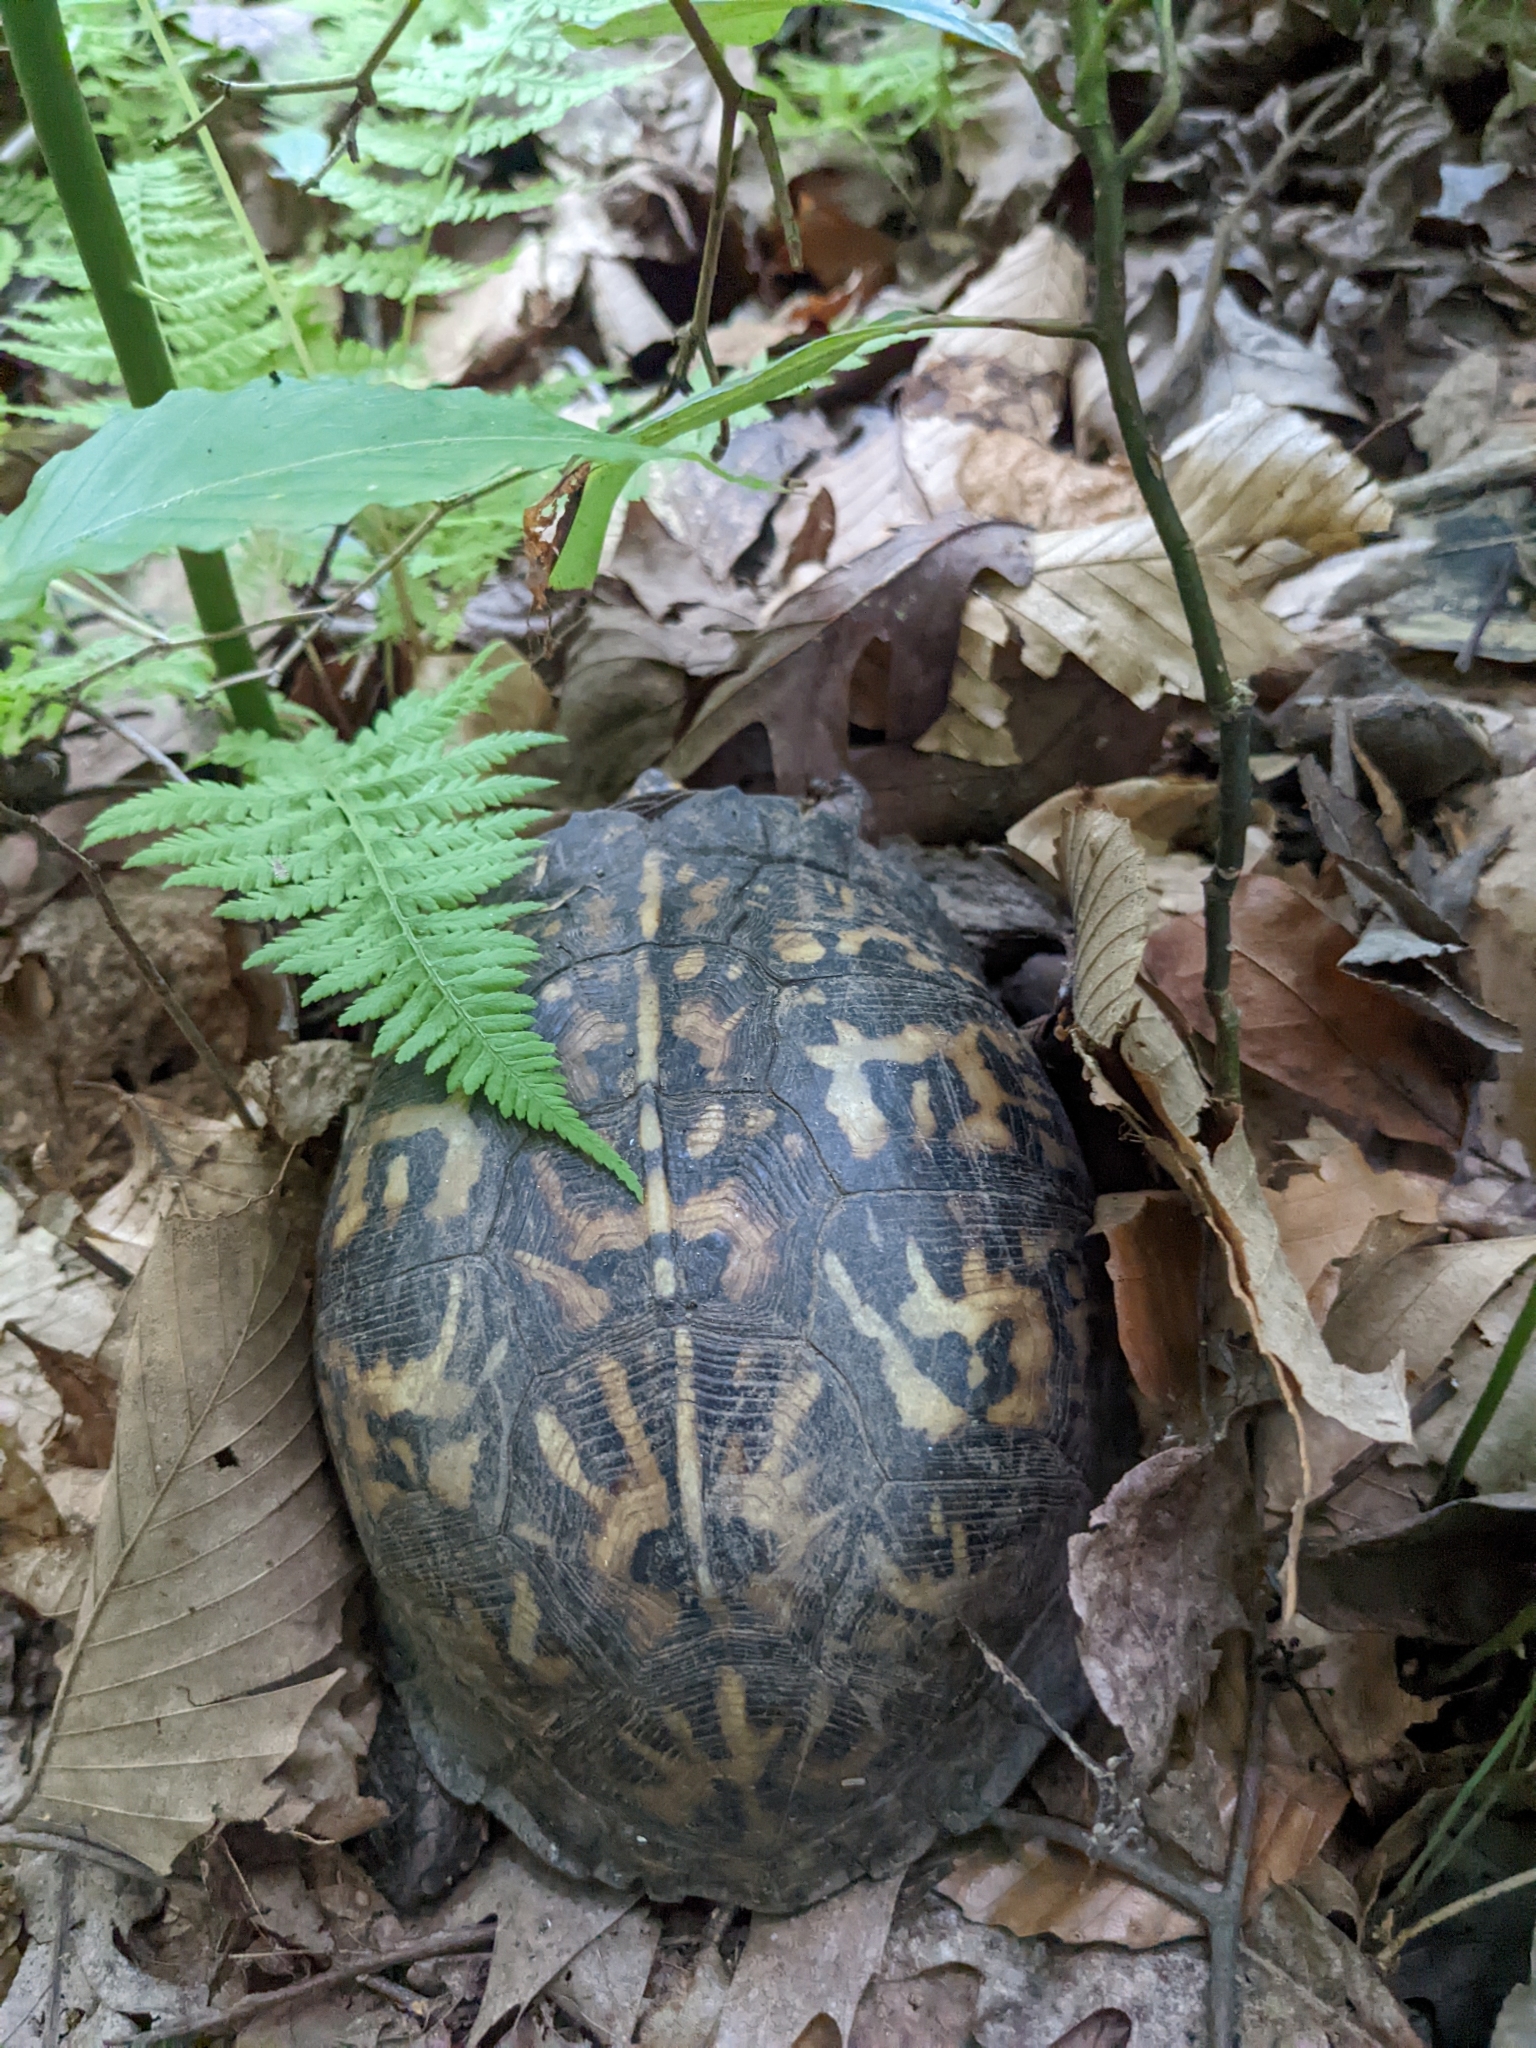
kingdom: Animalia
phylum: Chordata
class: Testudines
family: Emydidae
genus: Terrapene
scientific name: Terrapene carolina
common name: Common box turtle
